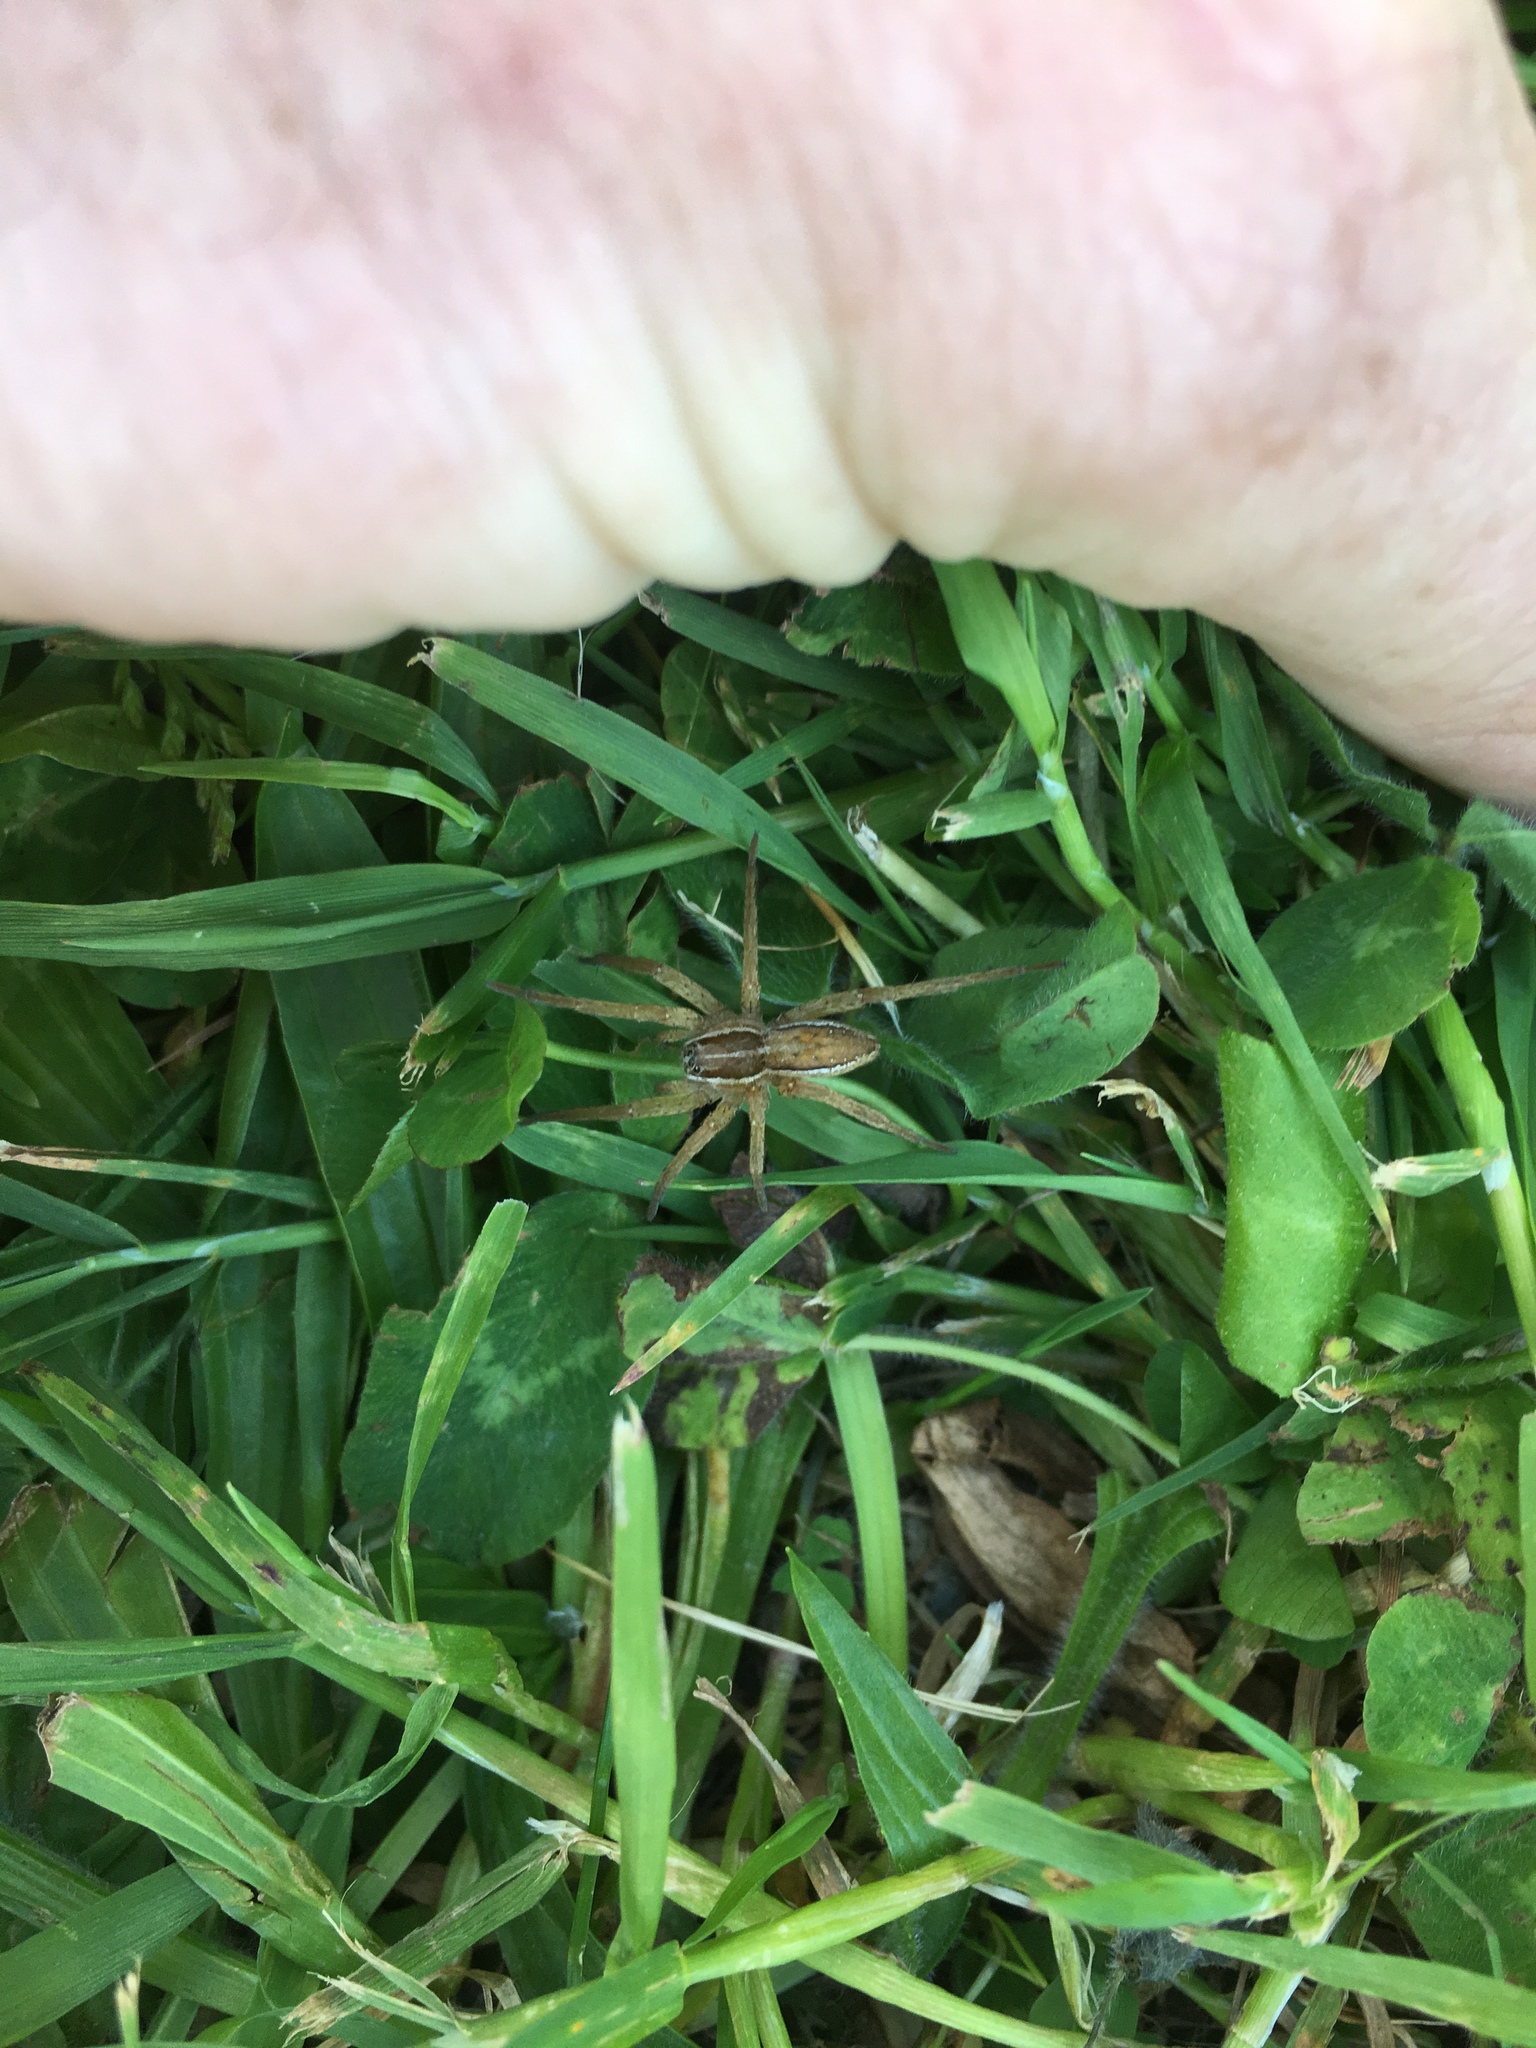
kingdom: Animalia
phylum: Arthropoda
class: Arachnida
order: Araneae
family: Pisauridae
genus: Dolomedes
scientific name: Dolomedes minor
